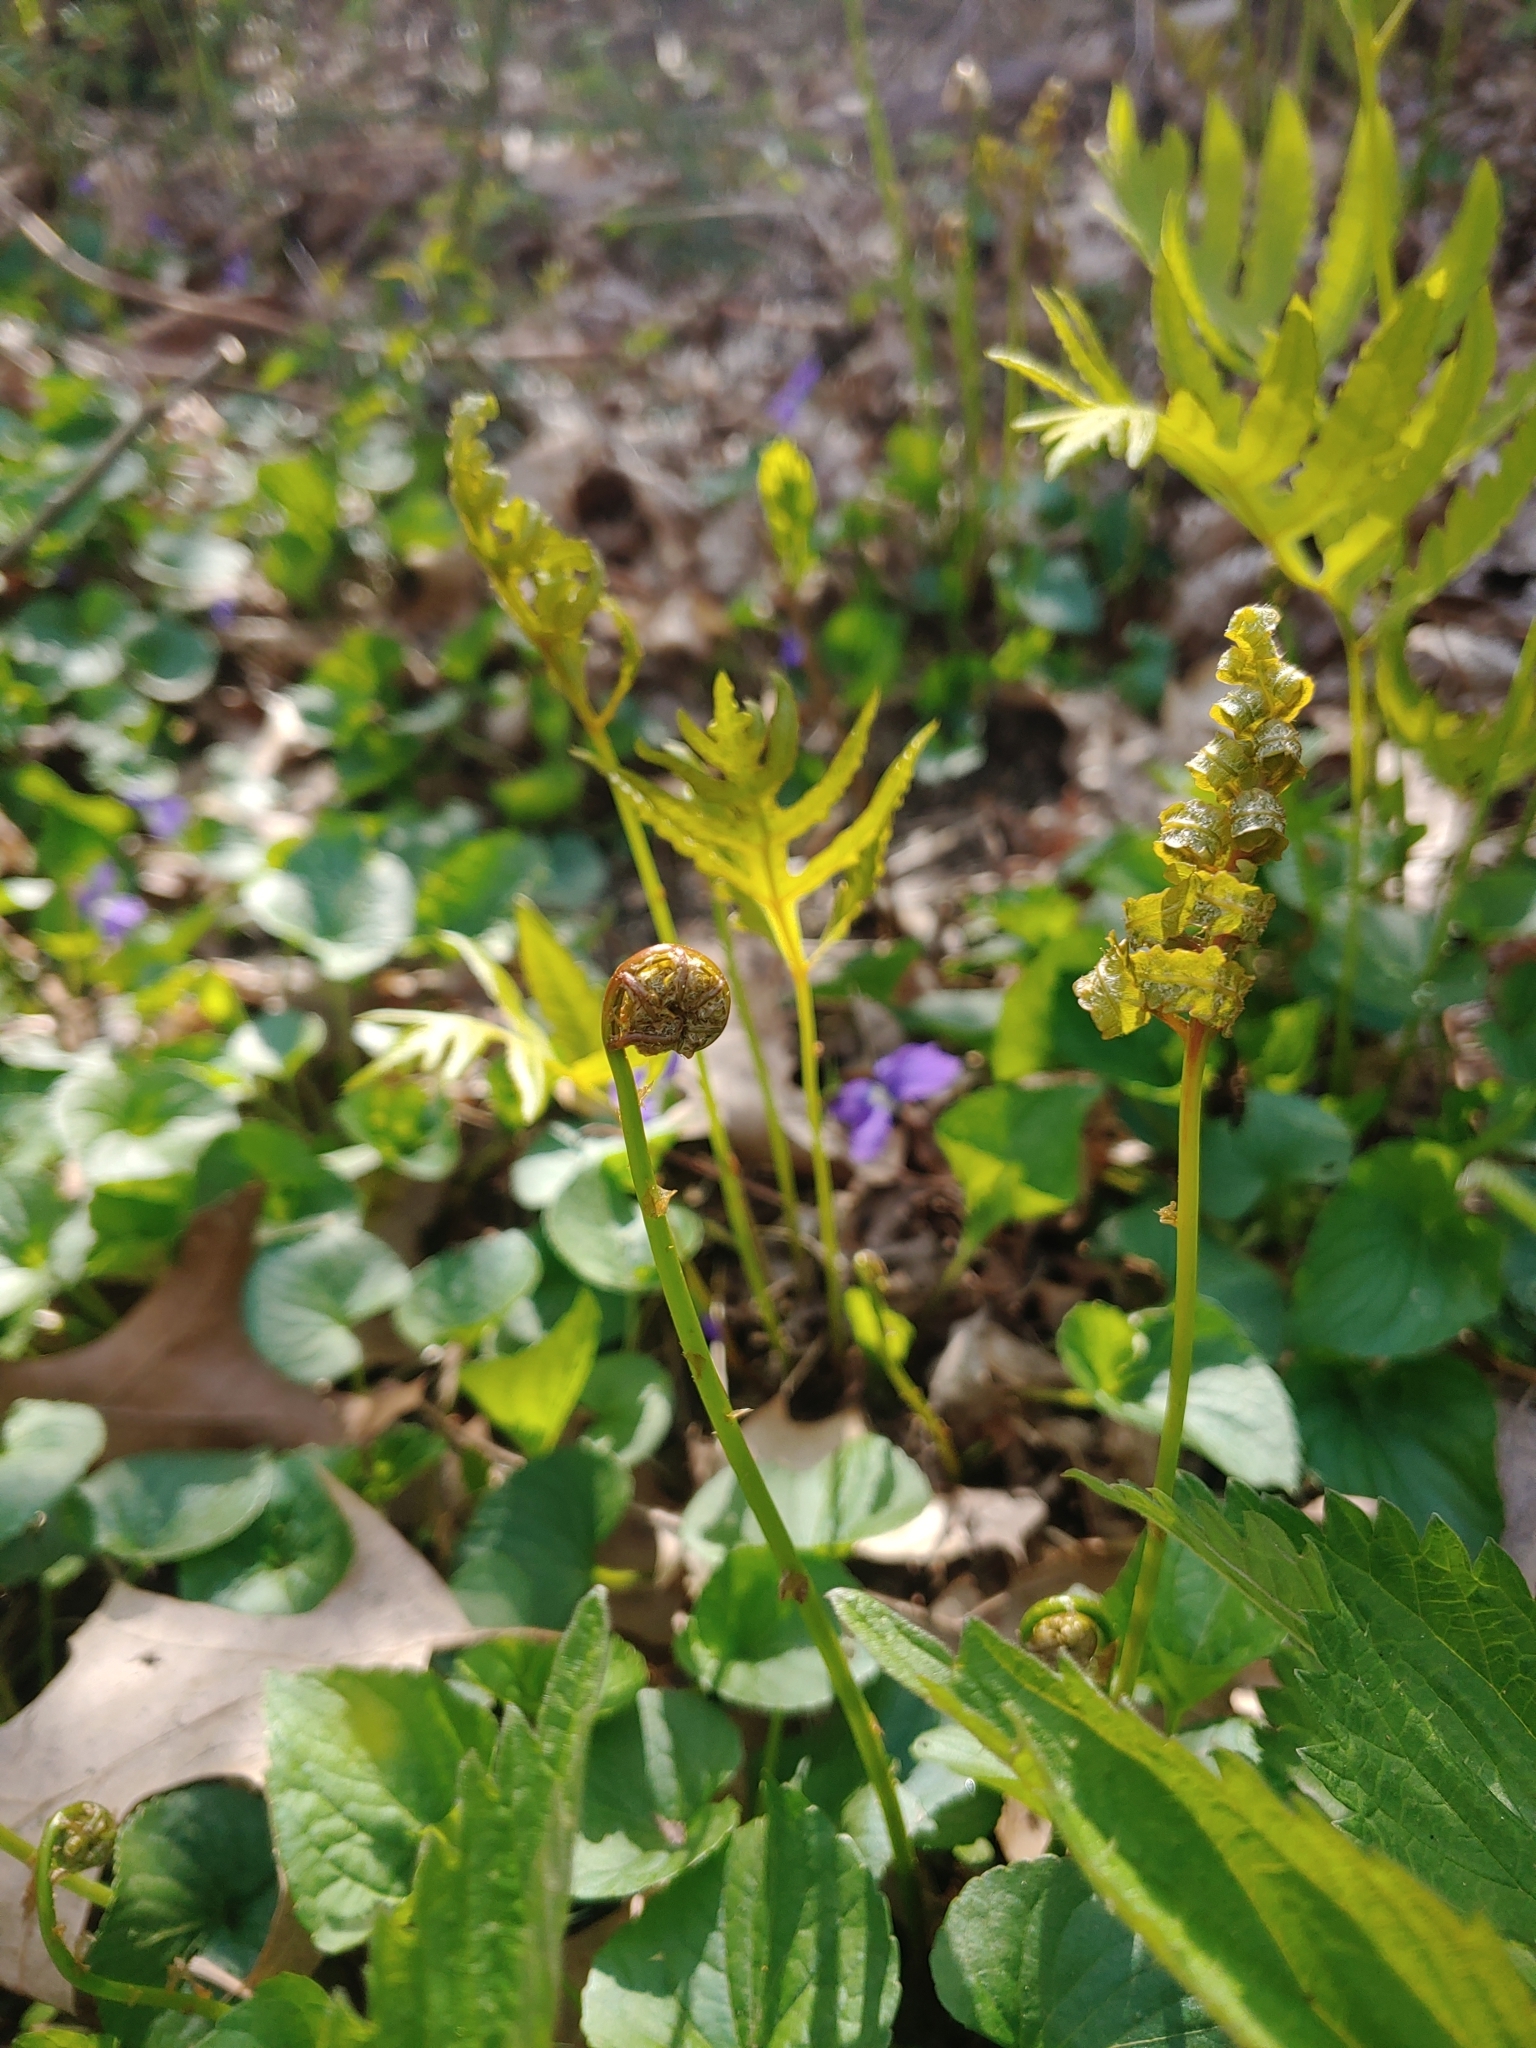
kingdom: Plantae
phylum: Tracheophyta
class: Polypodiopsida
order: Polypodiales
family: Onocleaceae
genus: Onoclea
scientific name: Onoclea sensibilis
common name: Sensitive fern
